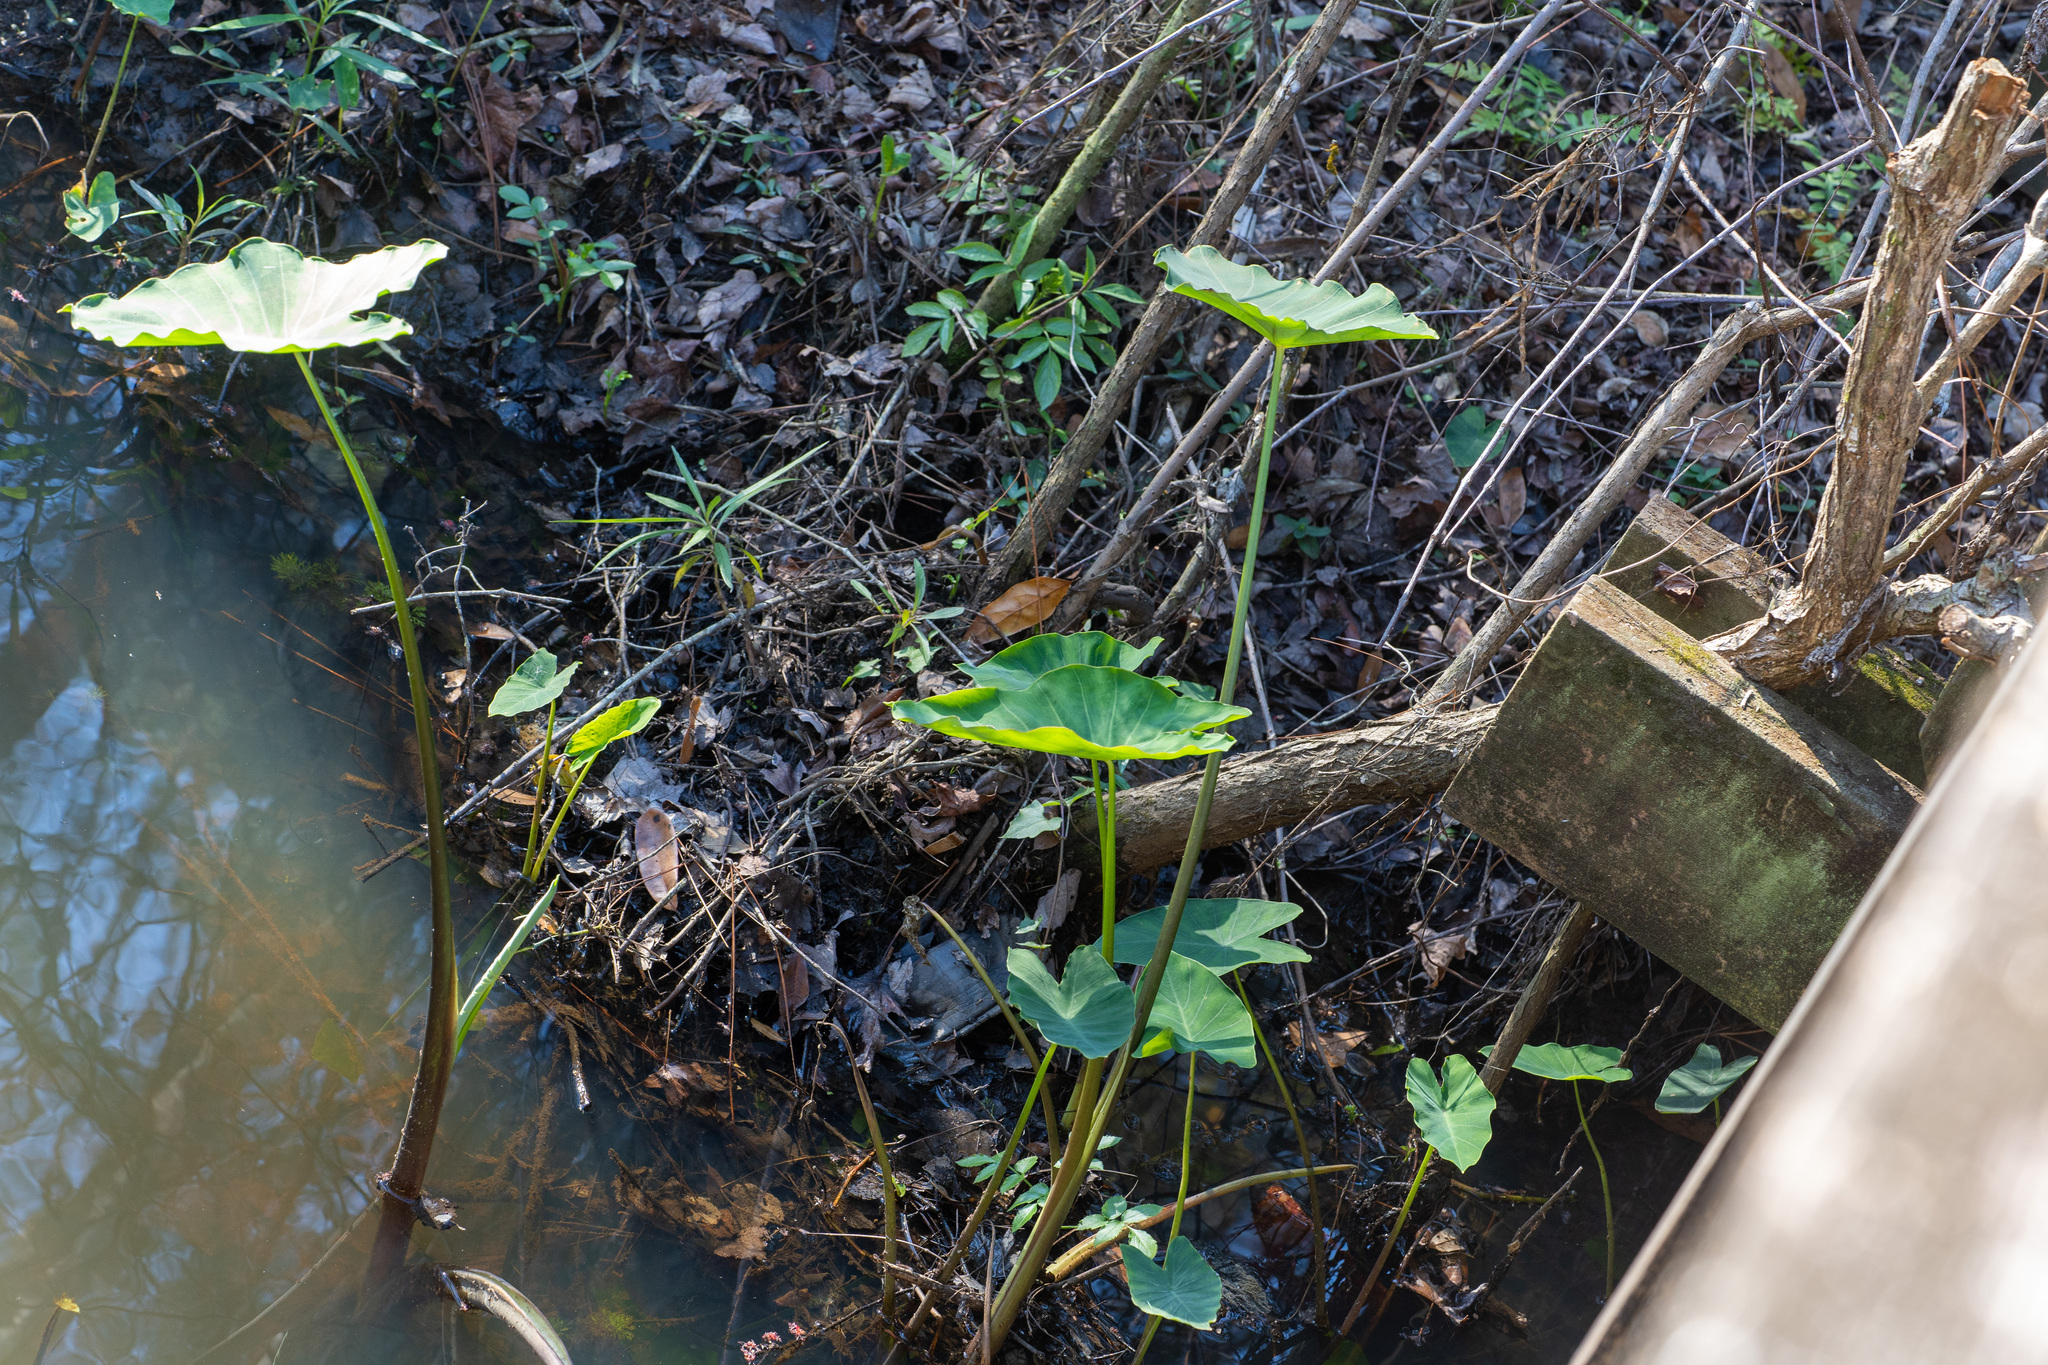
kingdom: Plantae
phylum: Tracheophyta
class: Liliopsida
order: Alismatales
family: Araceae
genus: Colocasia
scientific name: Colocasia esculenta
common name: Taro
